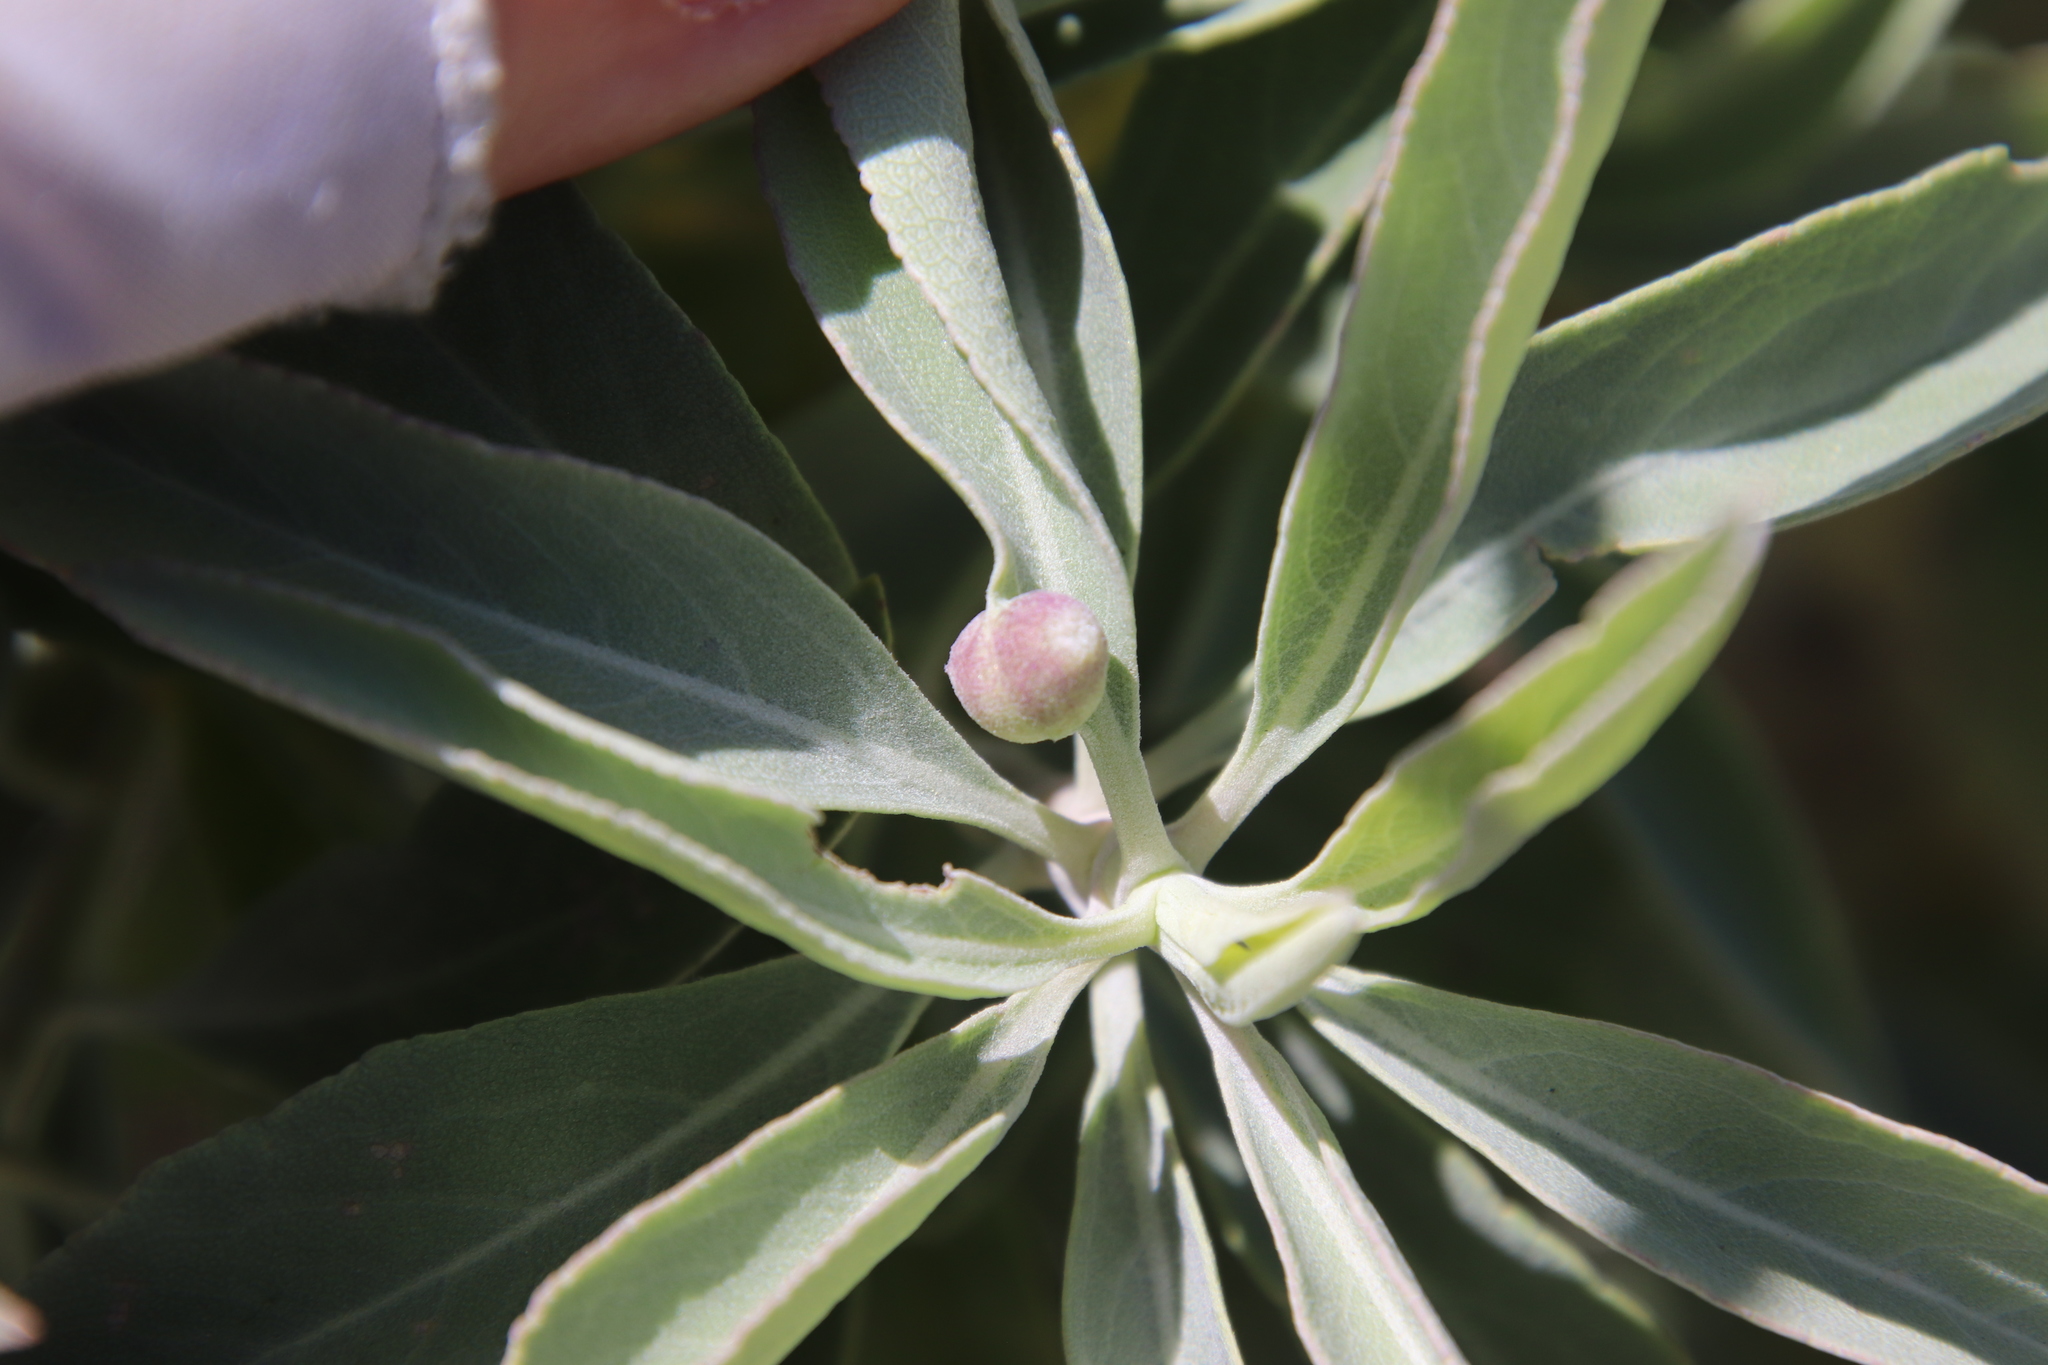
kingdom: Animalia
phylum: Arthropoda
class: Insecta
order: Diptera
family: Cecidomyiidae
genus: Rhopalomyia
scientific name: Rhopalomyia audibertiae
